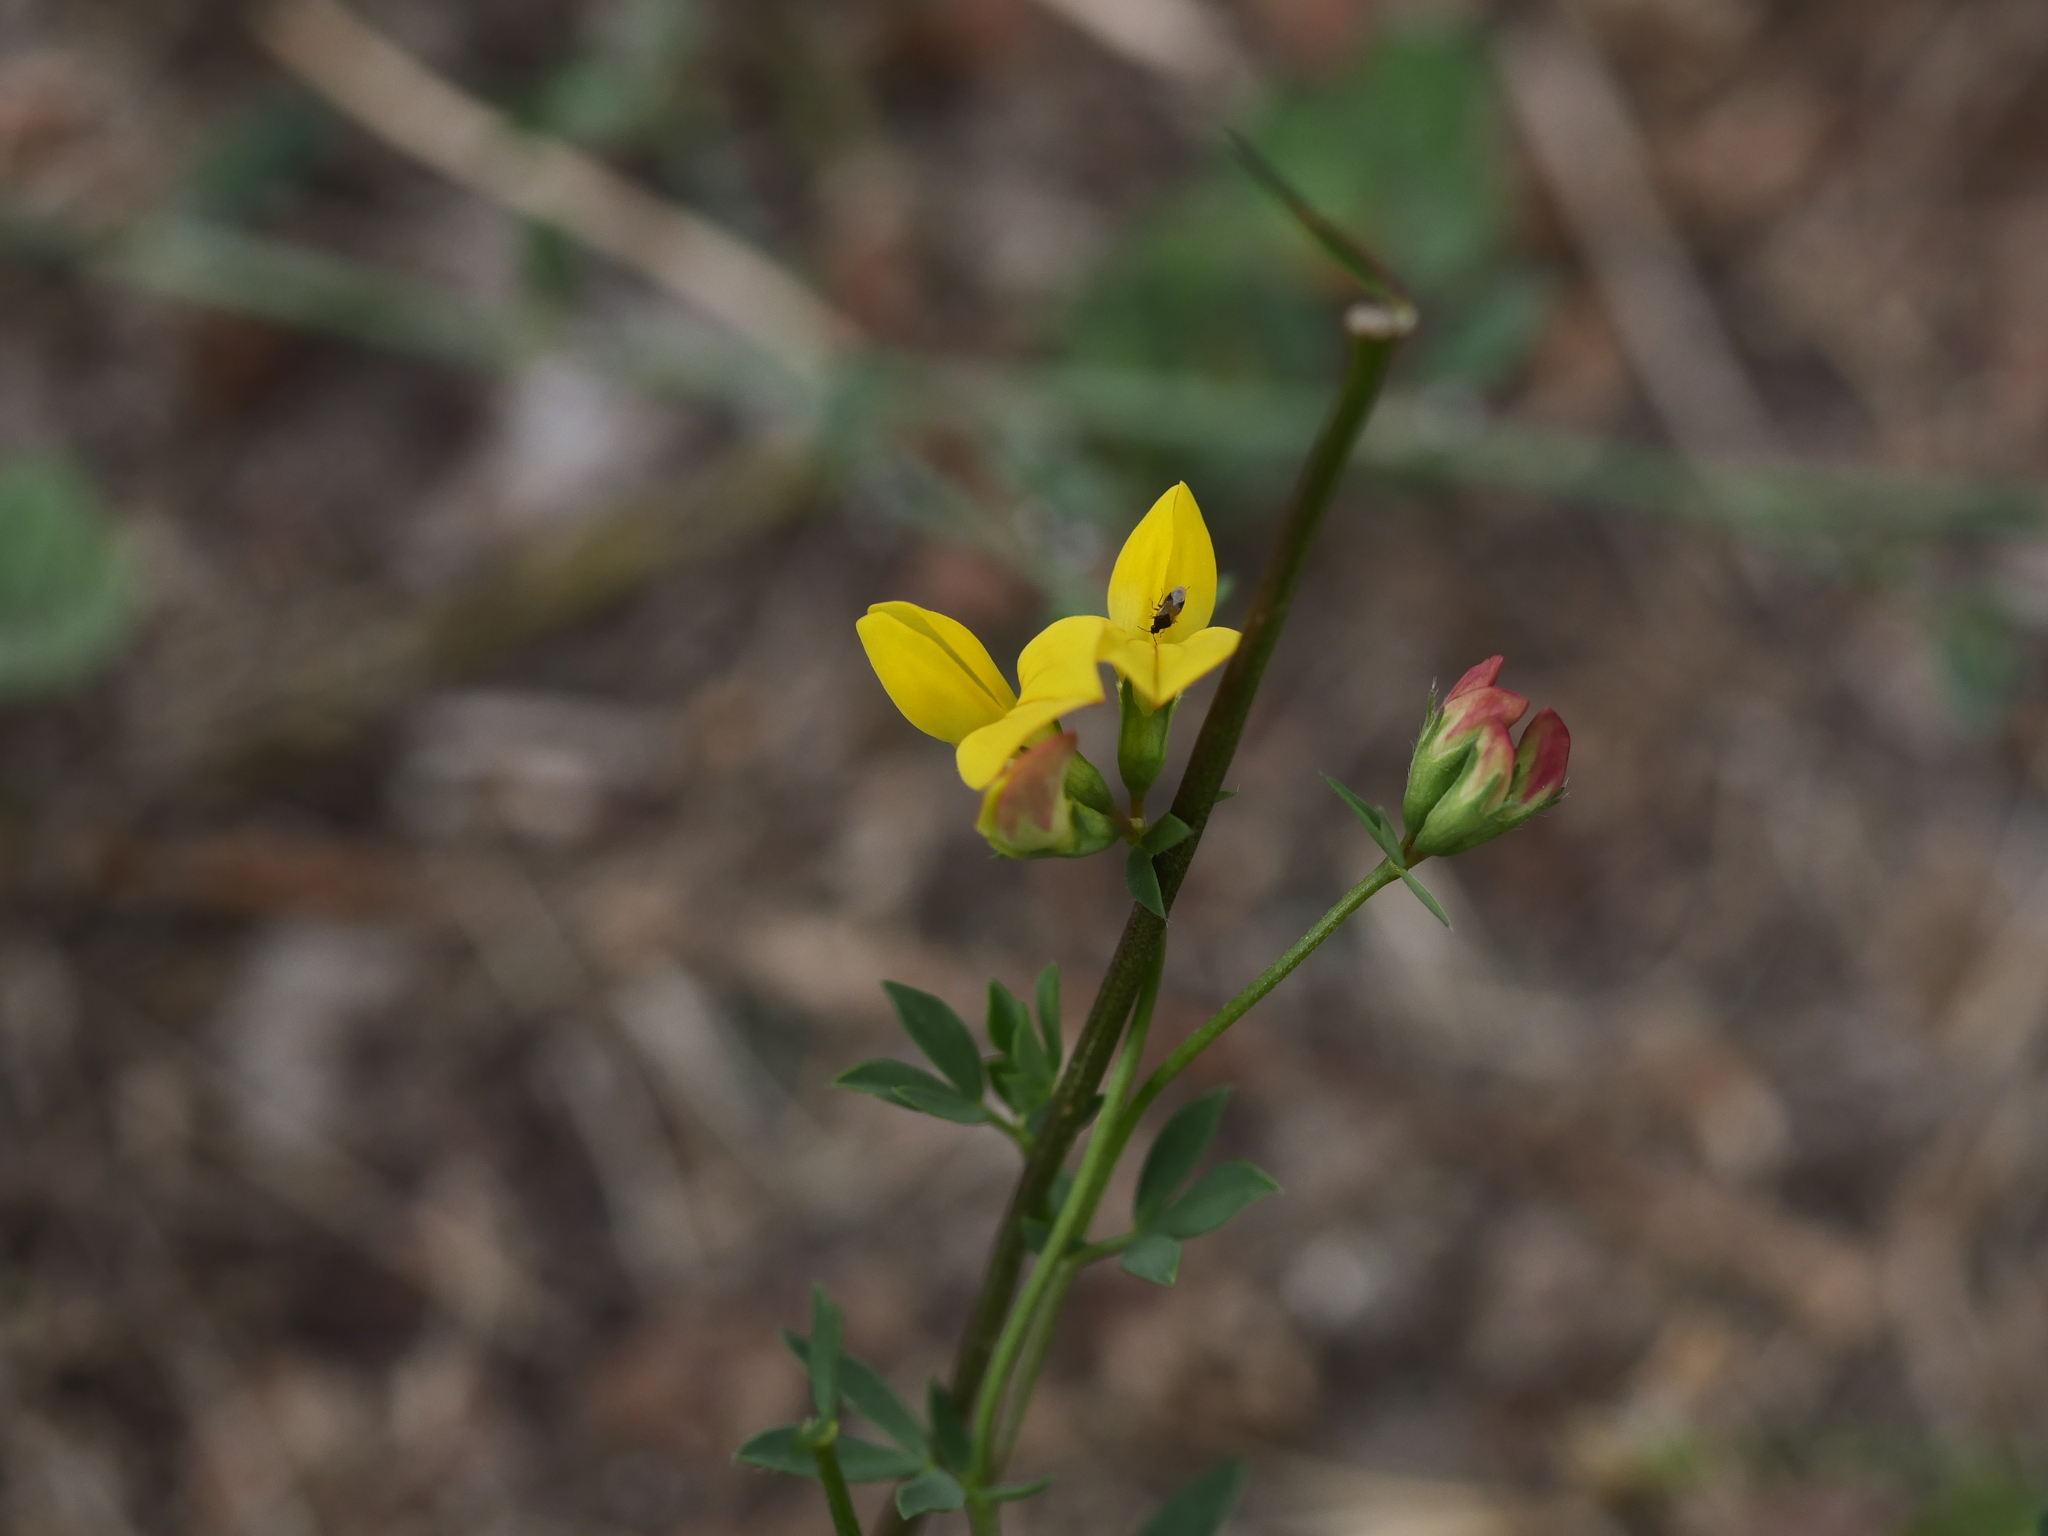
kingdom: Plantae
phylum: Tracheophyta
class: Magnoliopsida
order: Fabales
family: Fabaceae
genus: Lotus
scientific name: Lotus corniculatus
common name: Common bird's-foot-trefoil
